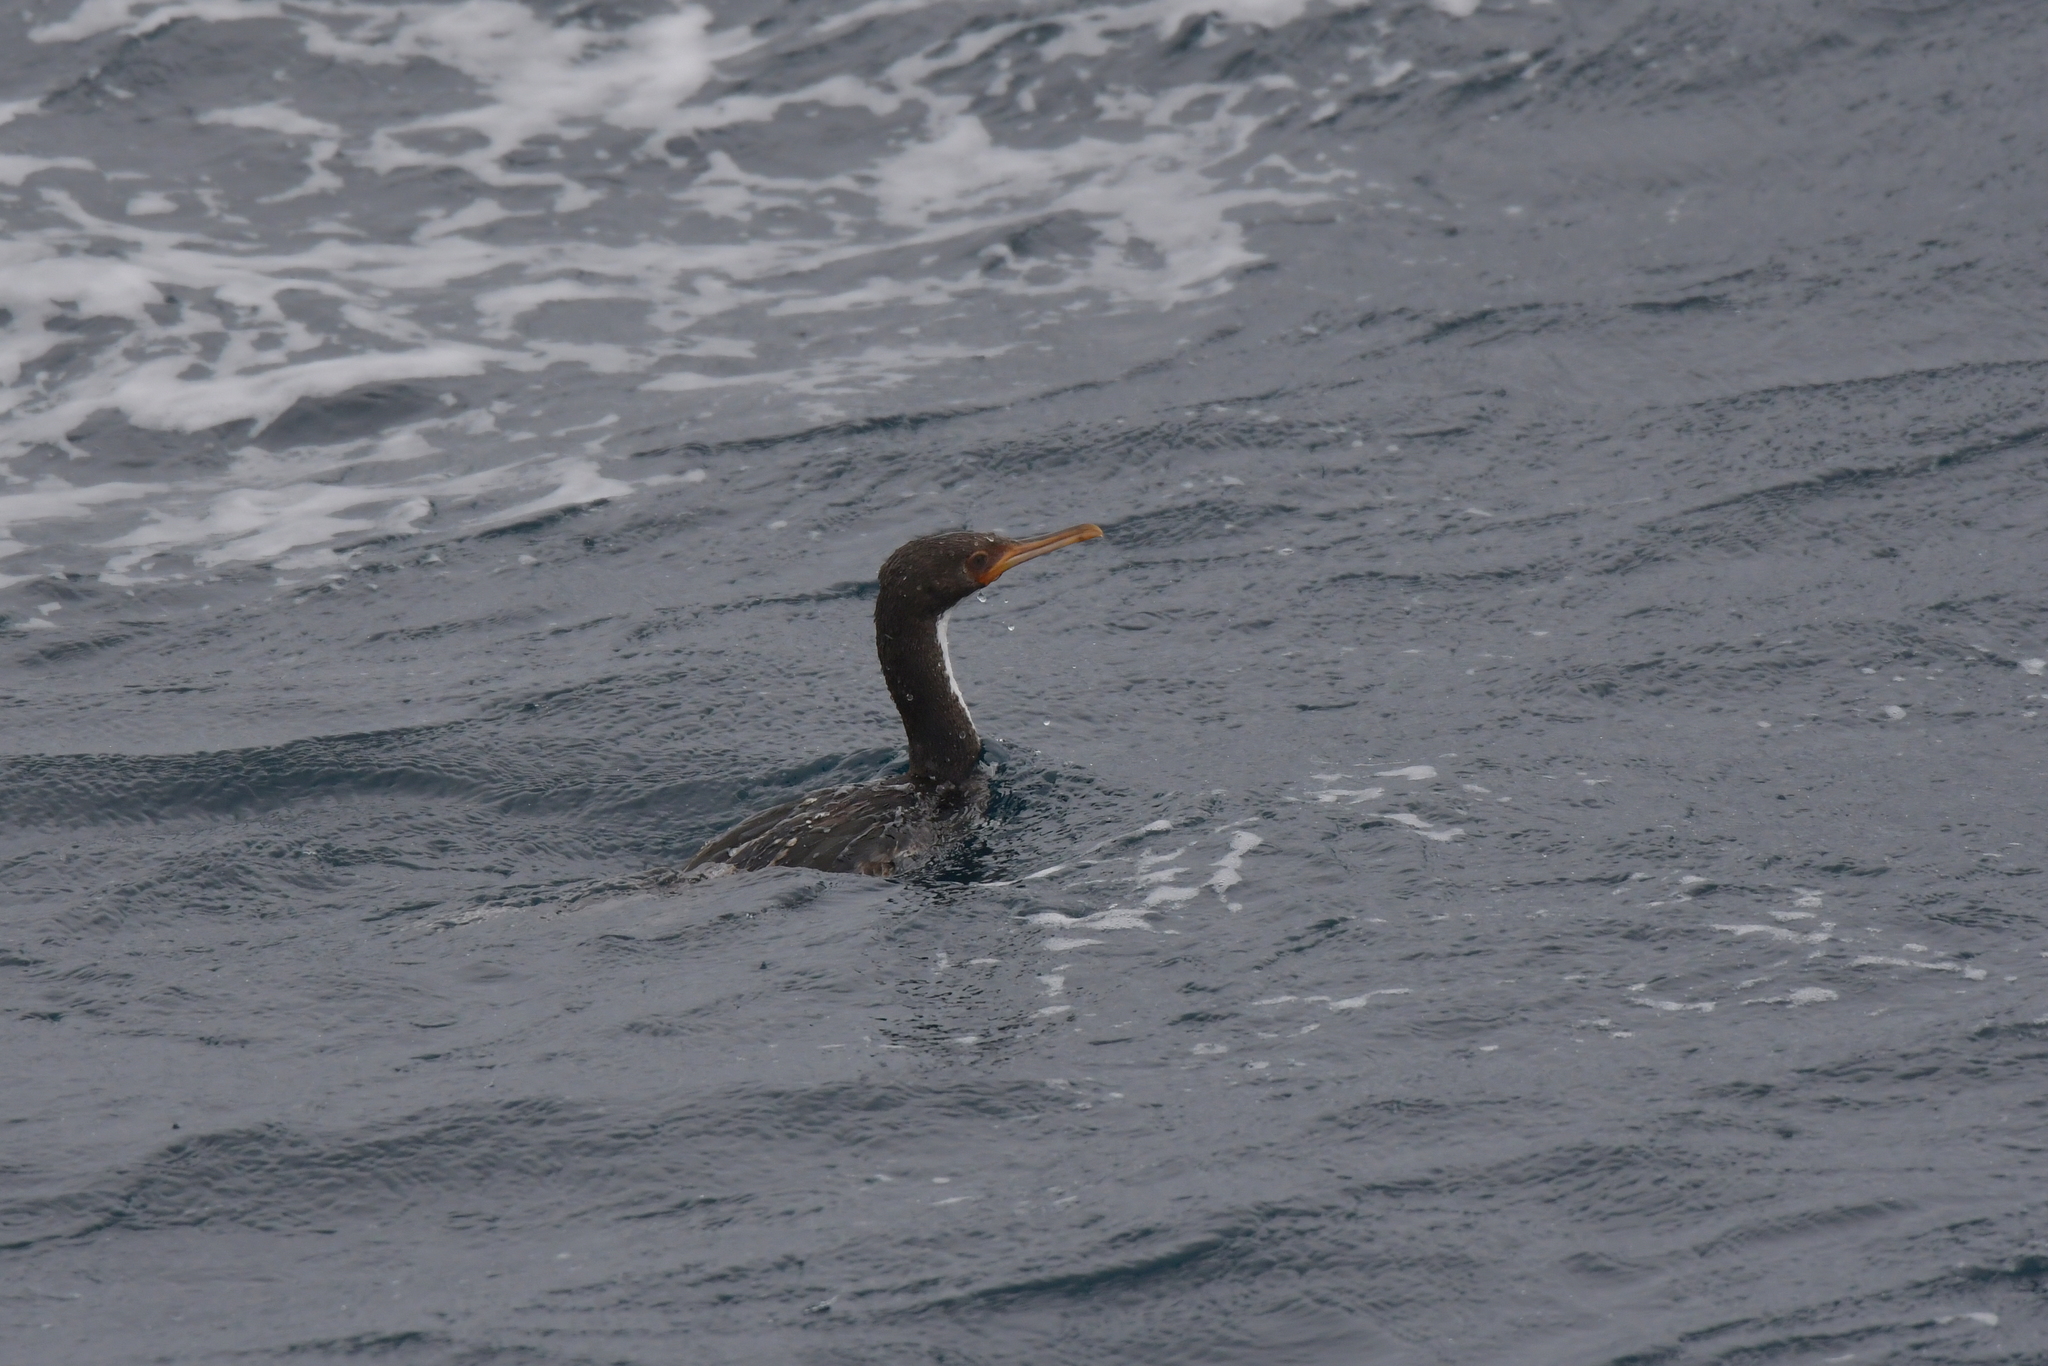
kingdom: Animalia
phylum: Chordata
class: Aves
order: Suliformes
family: Phalacrocoracidae
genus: Leucocarbo
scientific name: Leucocarbo ranfurlyi
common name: Bounty shag
